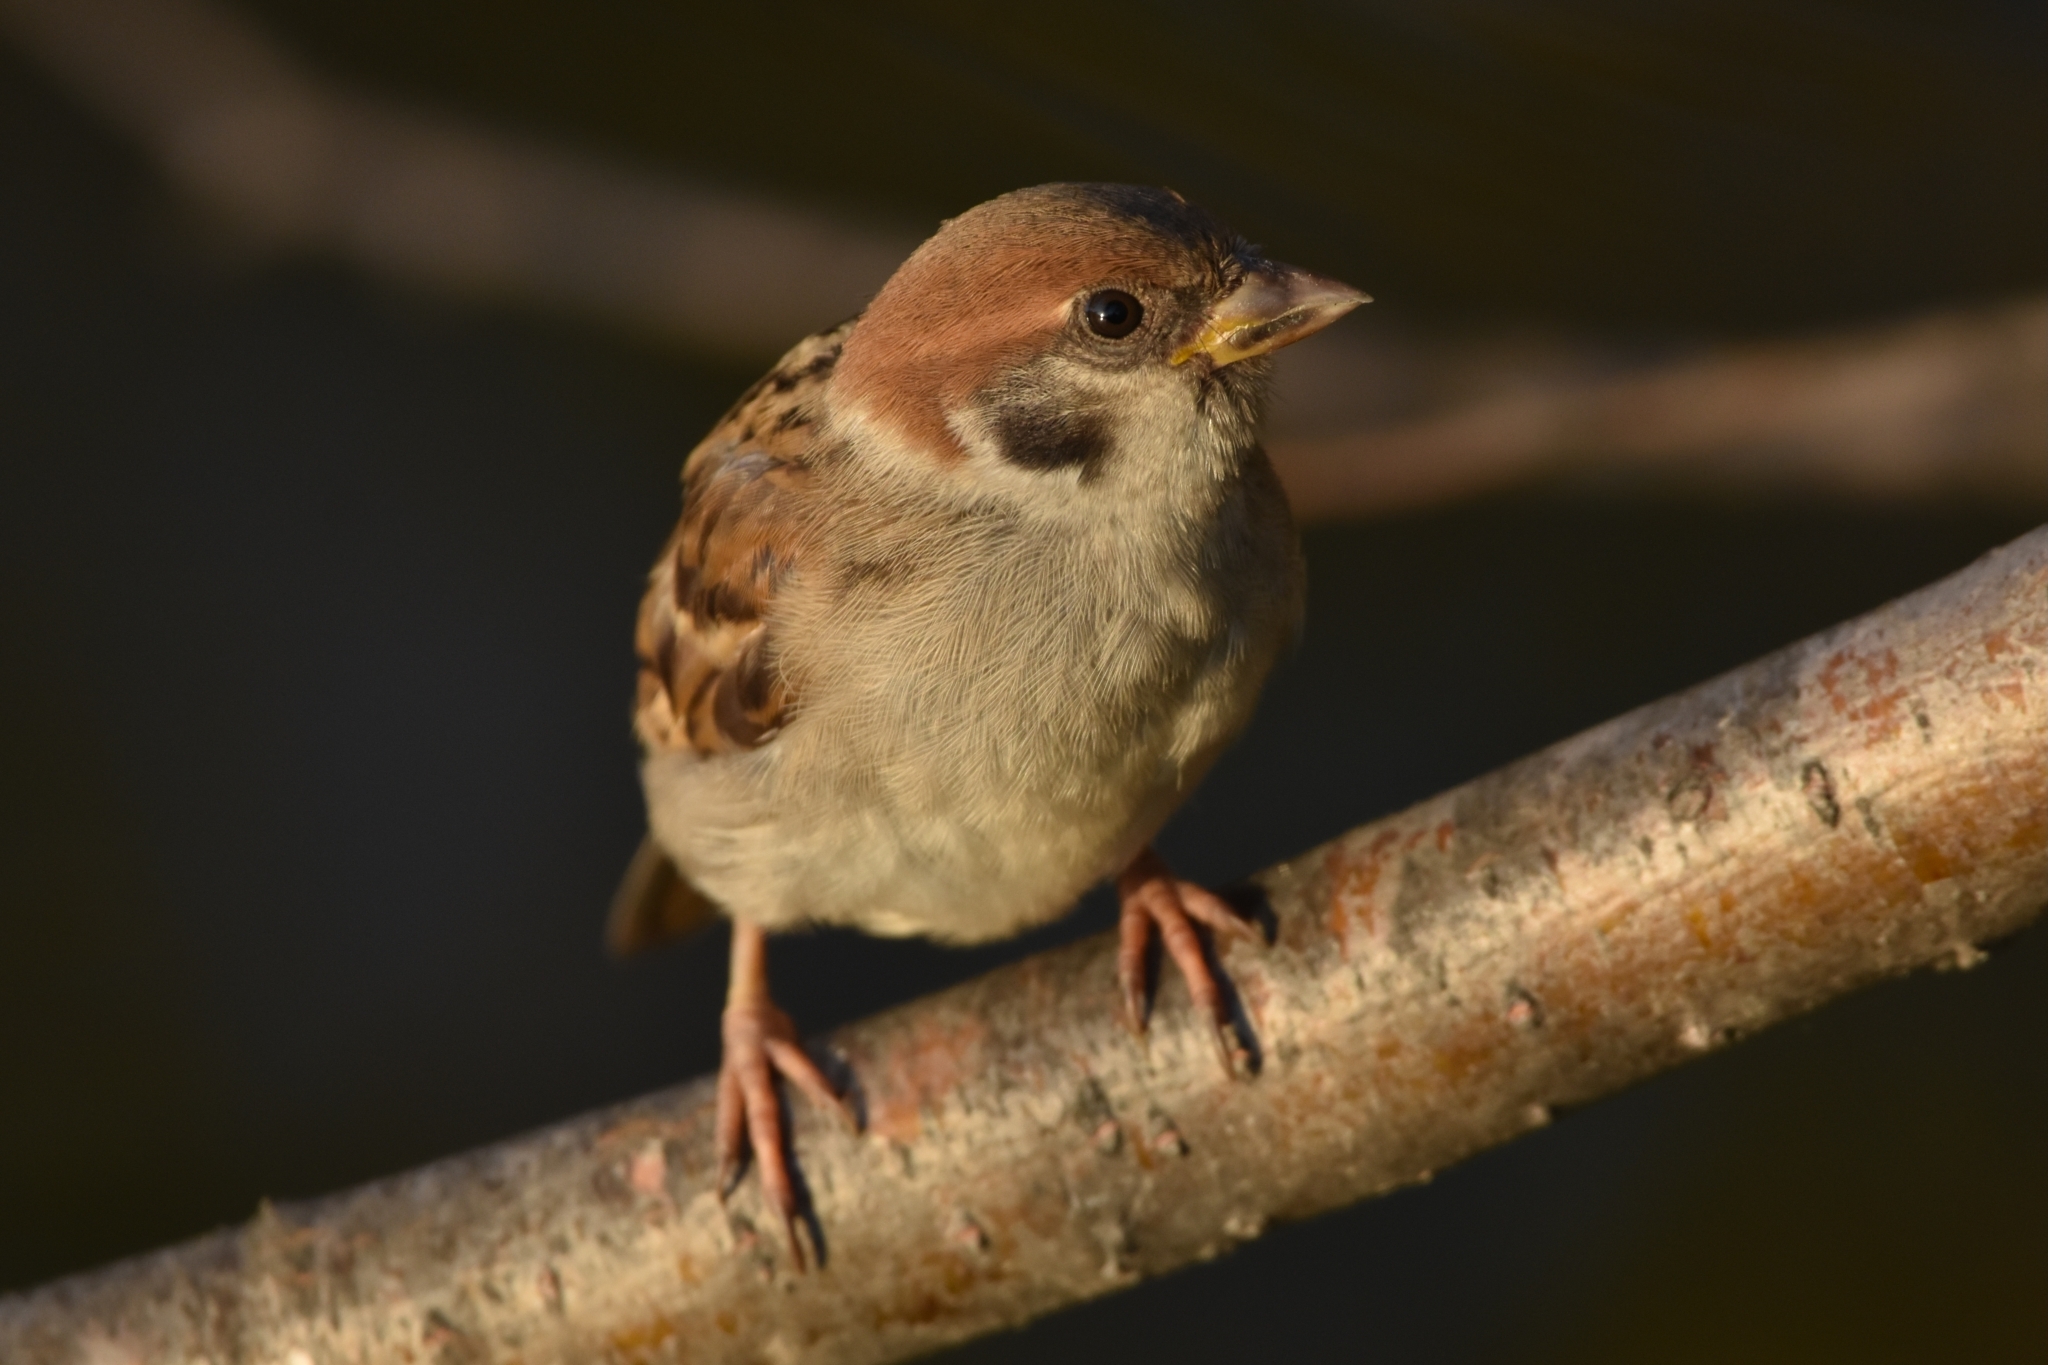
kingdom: Animalia
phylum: Chordata
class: Aves
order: Passeriformes
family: Passeridae
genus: Passer
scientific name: Passer montanus
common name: Eurasian tree sparrow
